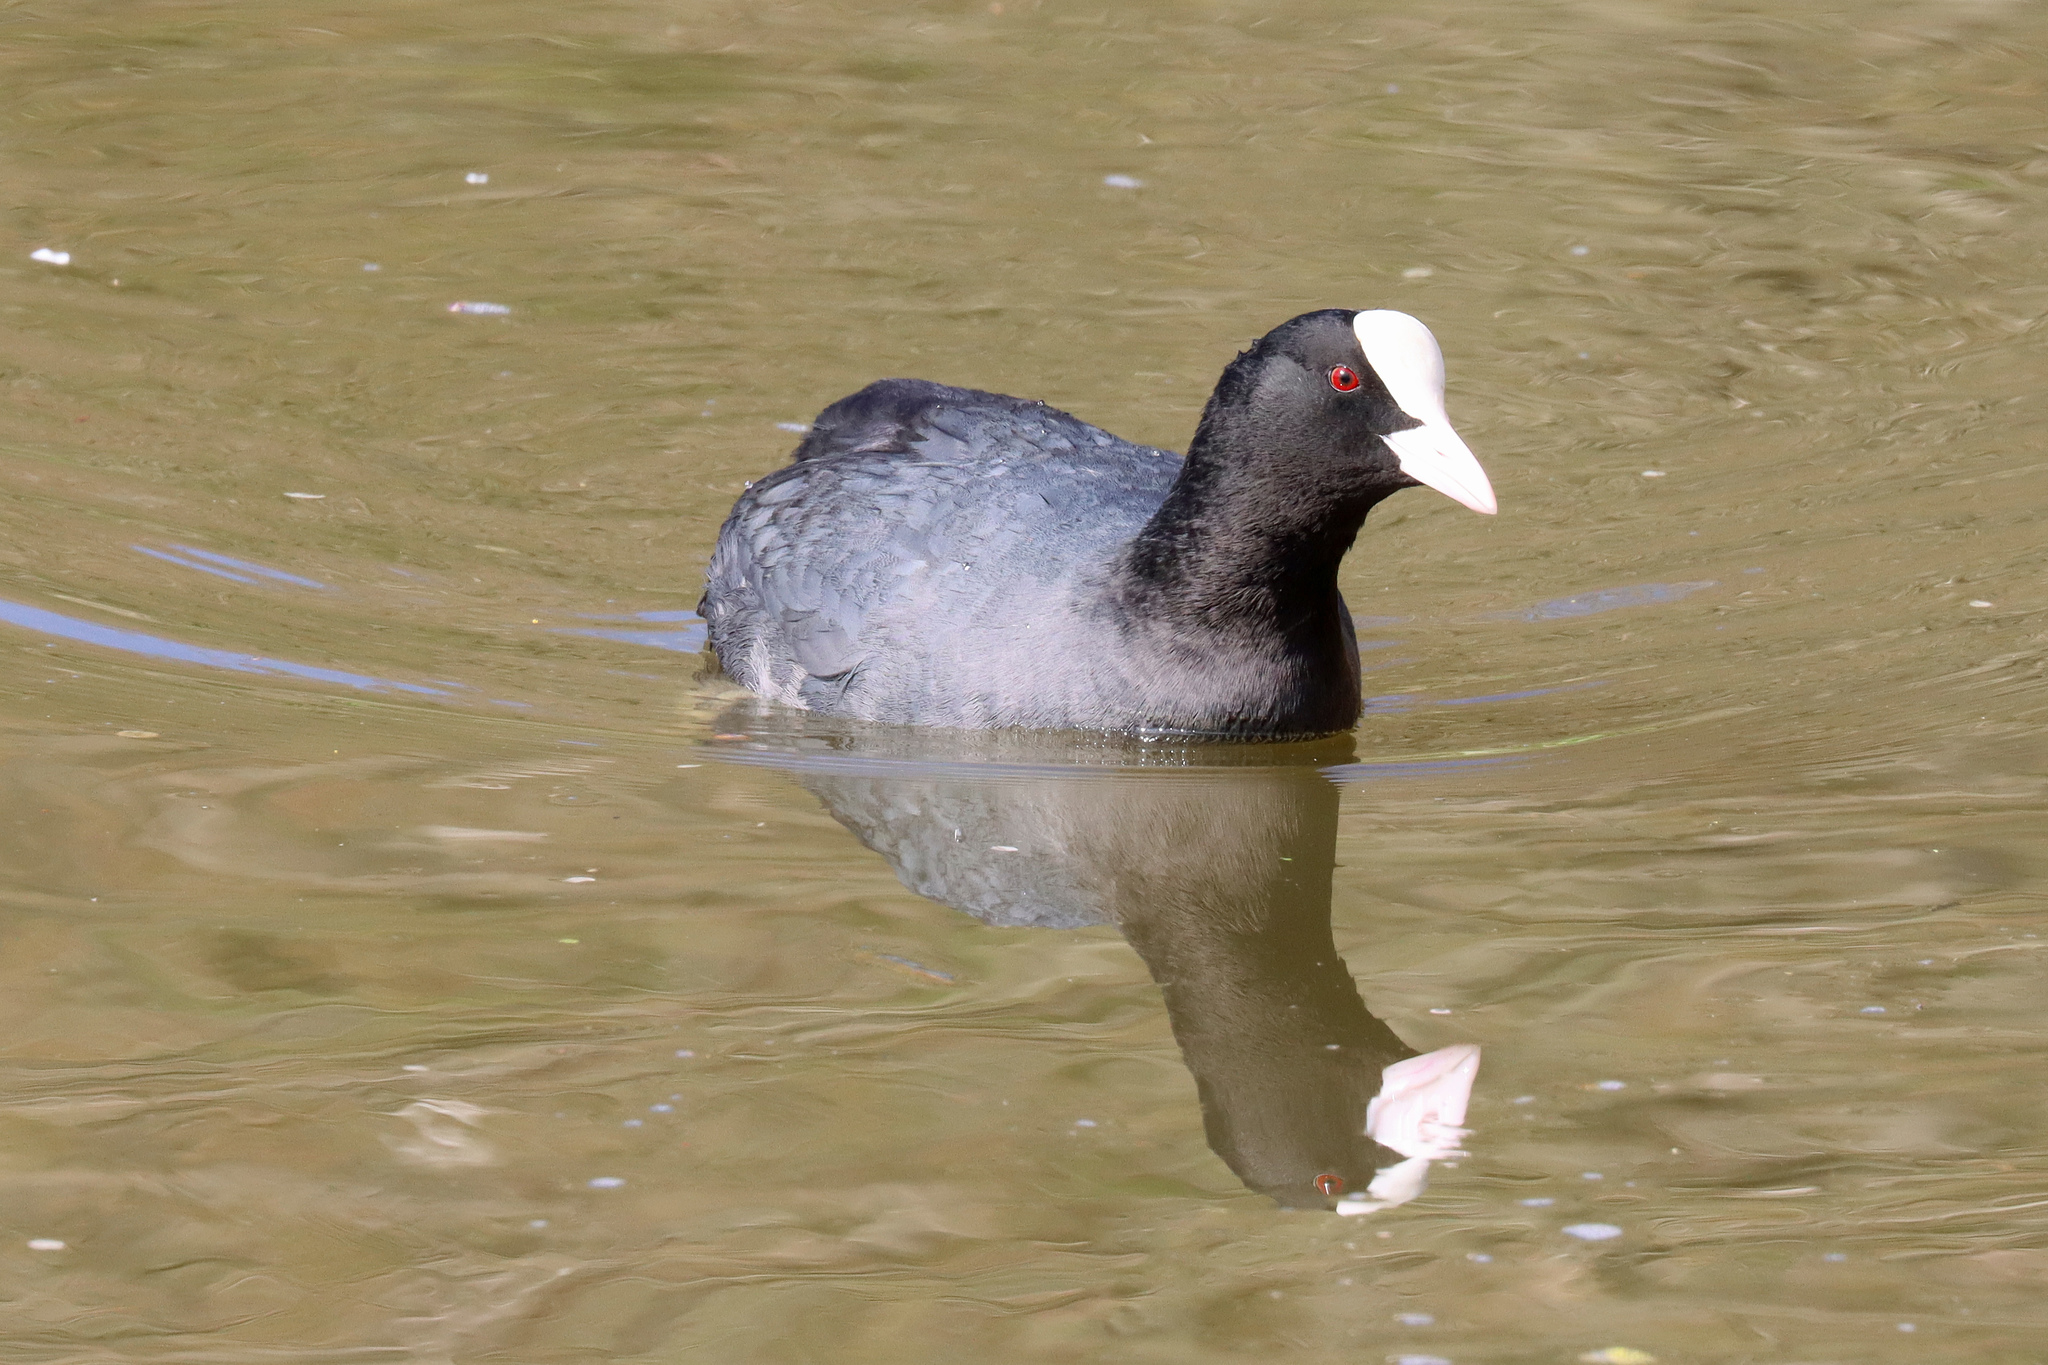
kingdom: Animalia
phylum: Chordata
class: Aves
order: Gruiformes
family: Rallidae
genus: Fulica
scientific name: Fulica atra
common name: Eurasian coot
